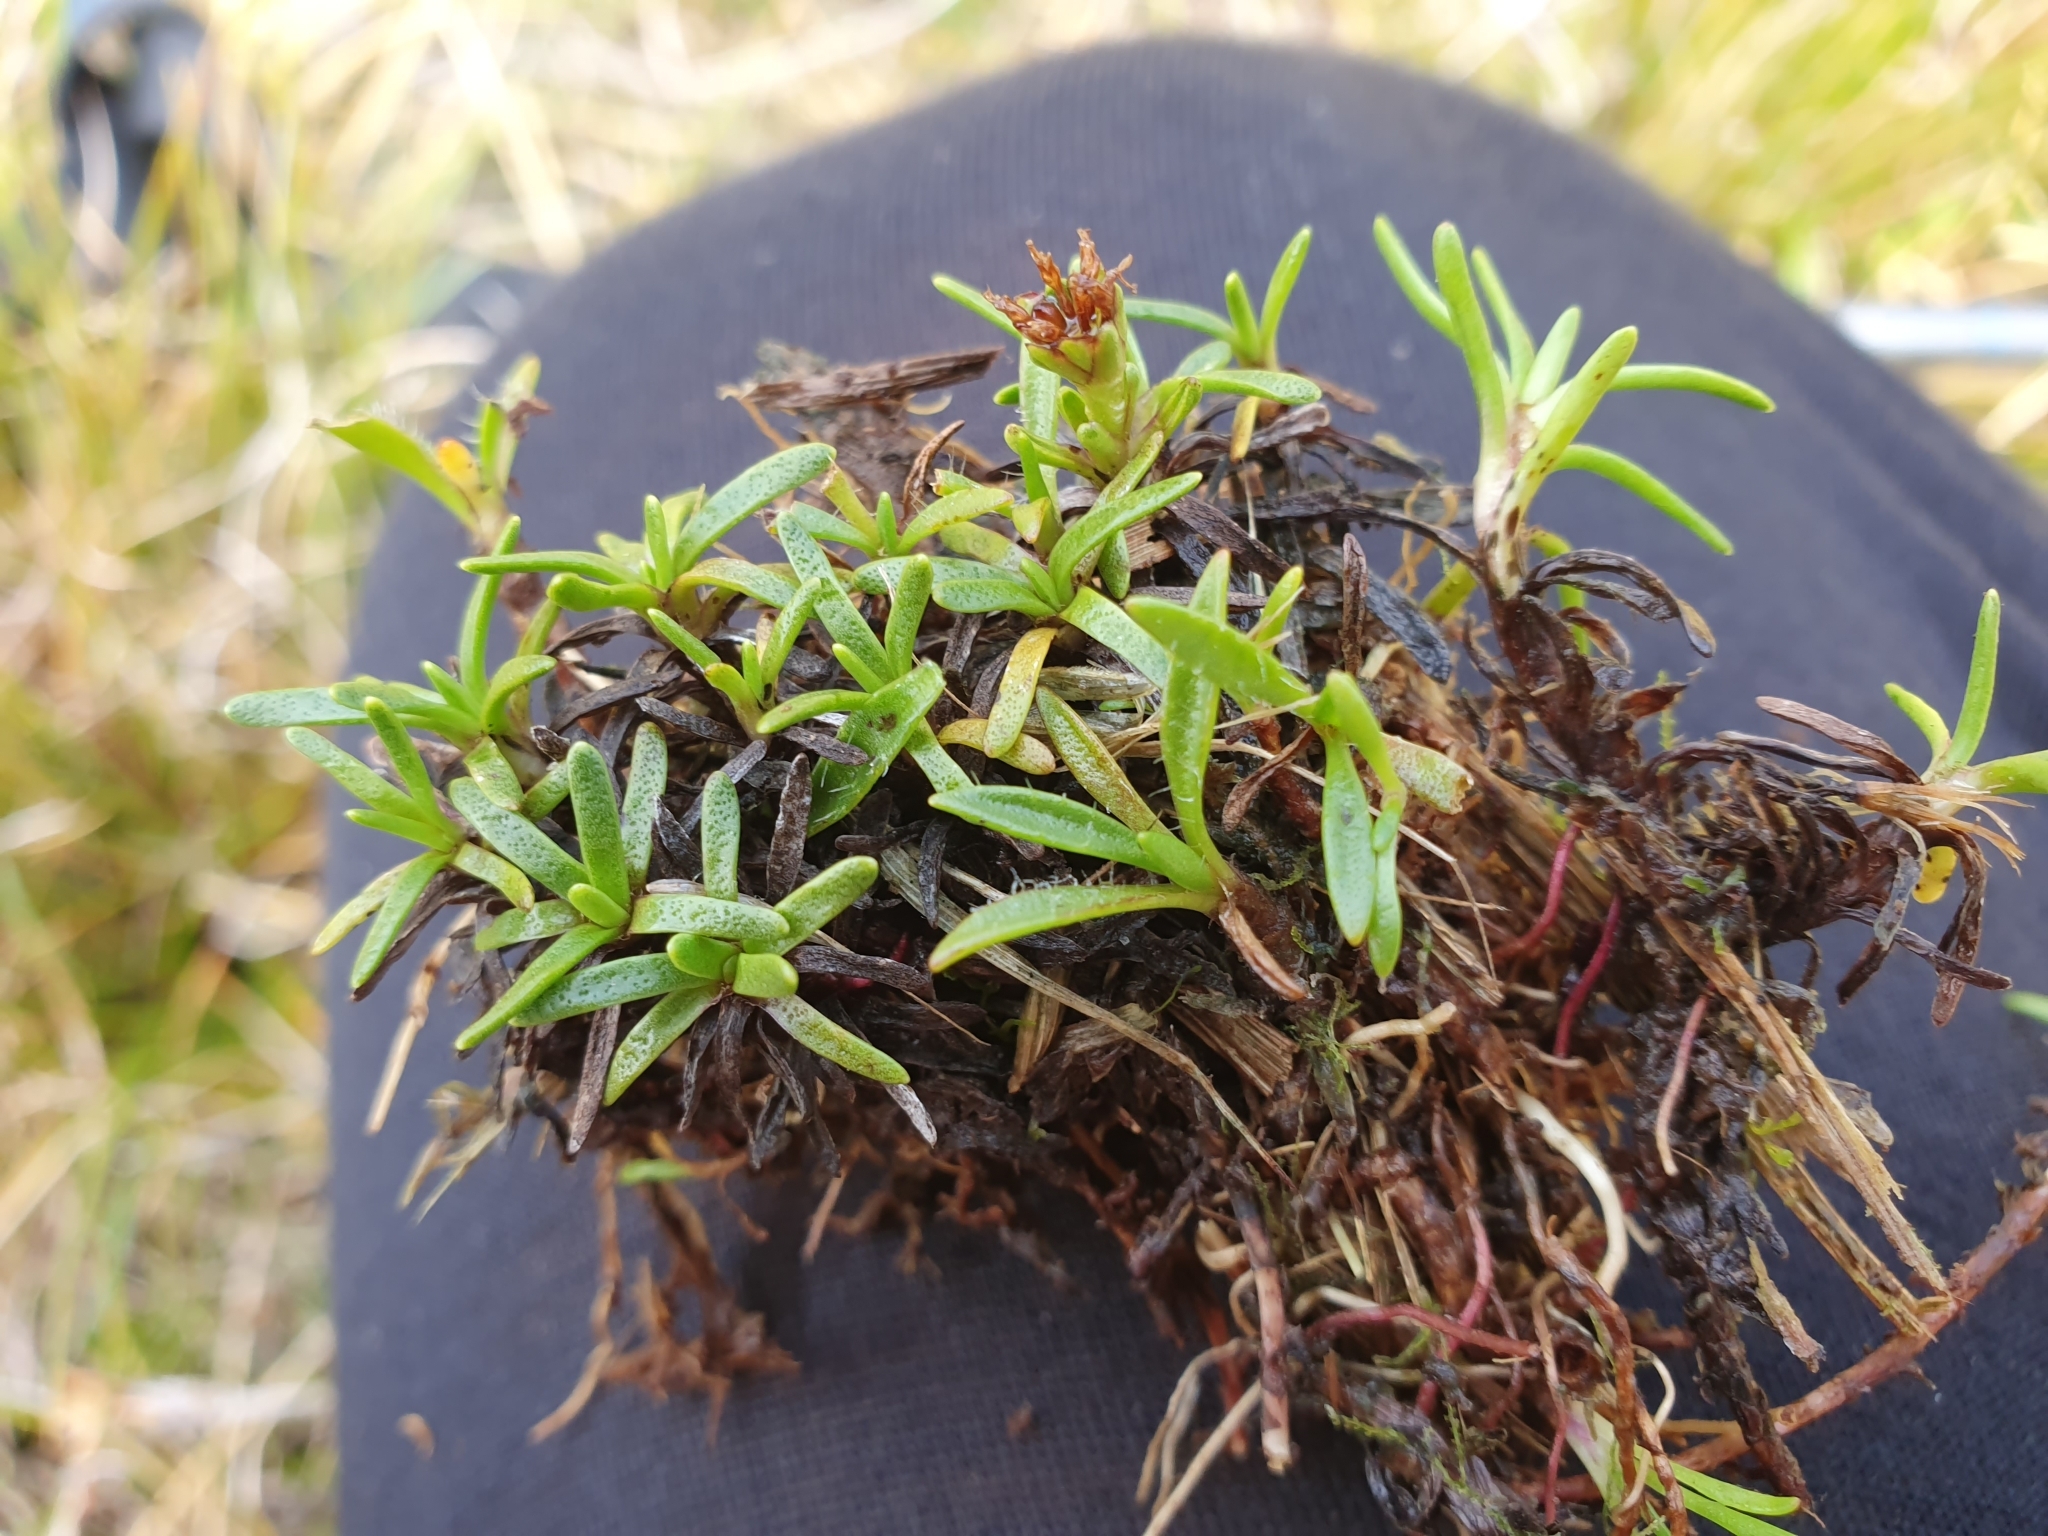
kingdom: Plantae
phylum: Tracheophyta
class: Magnoliopsida
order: Asterales
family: Asteraceae
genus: Abrotanella
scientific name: Abrotanella caespitosa
